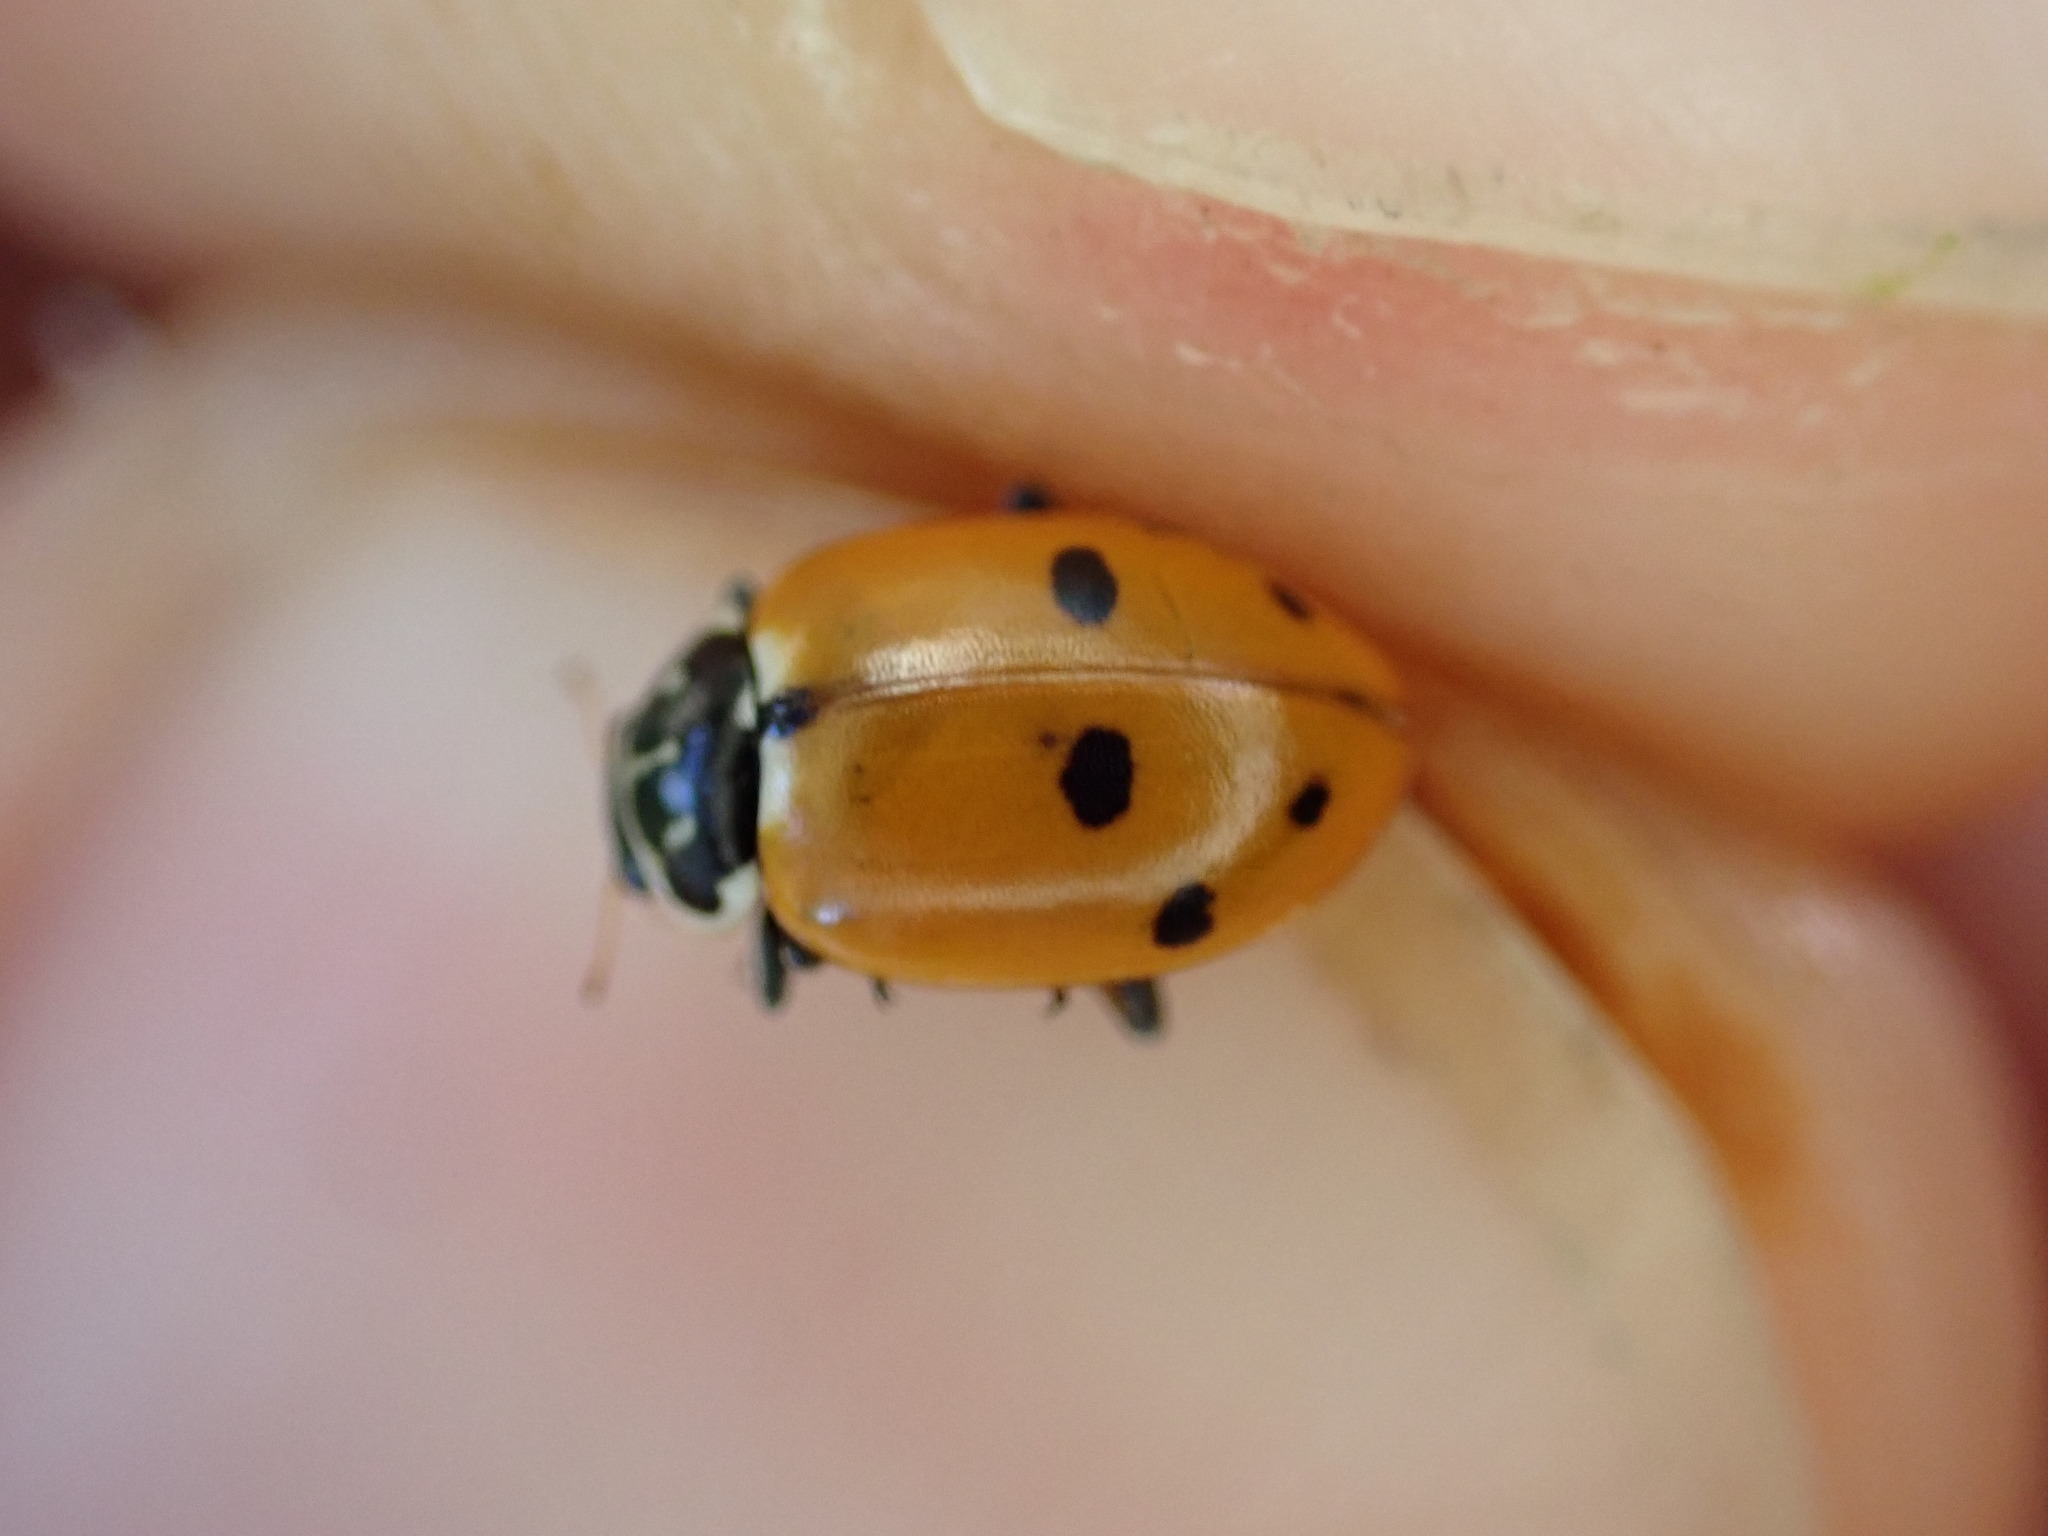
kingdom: Animalia
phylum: Arthropoda
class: Insecta
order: Coleoptera
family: Coccinellidae
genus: Hippodamia
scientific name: Hippodamia variegata
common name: Ladybird beetle
